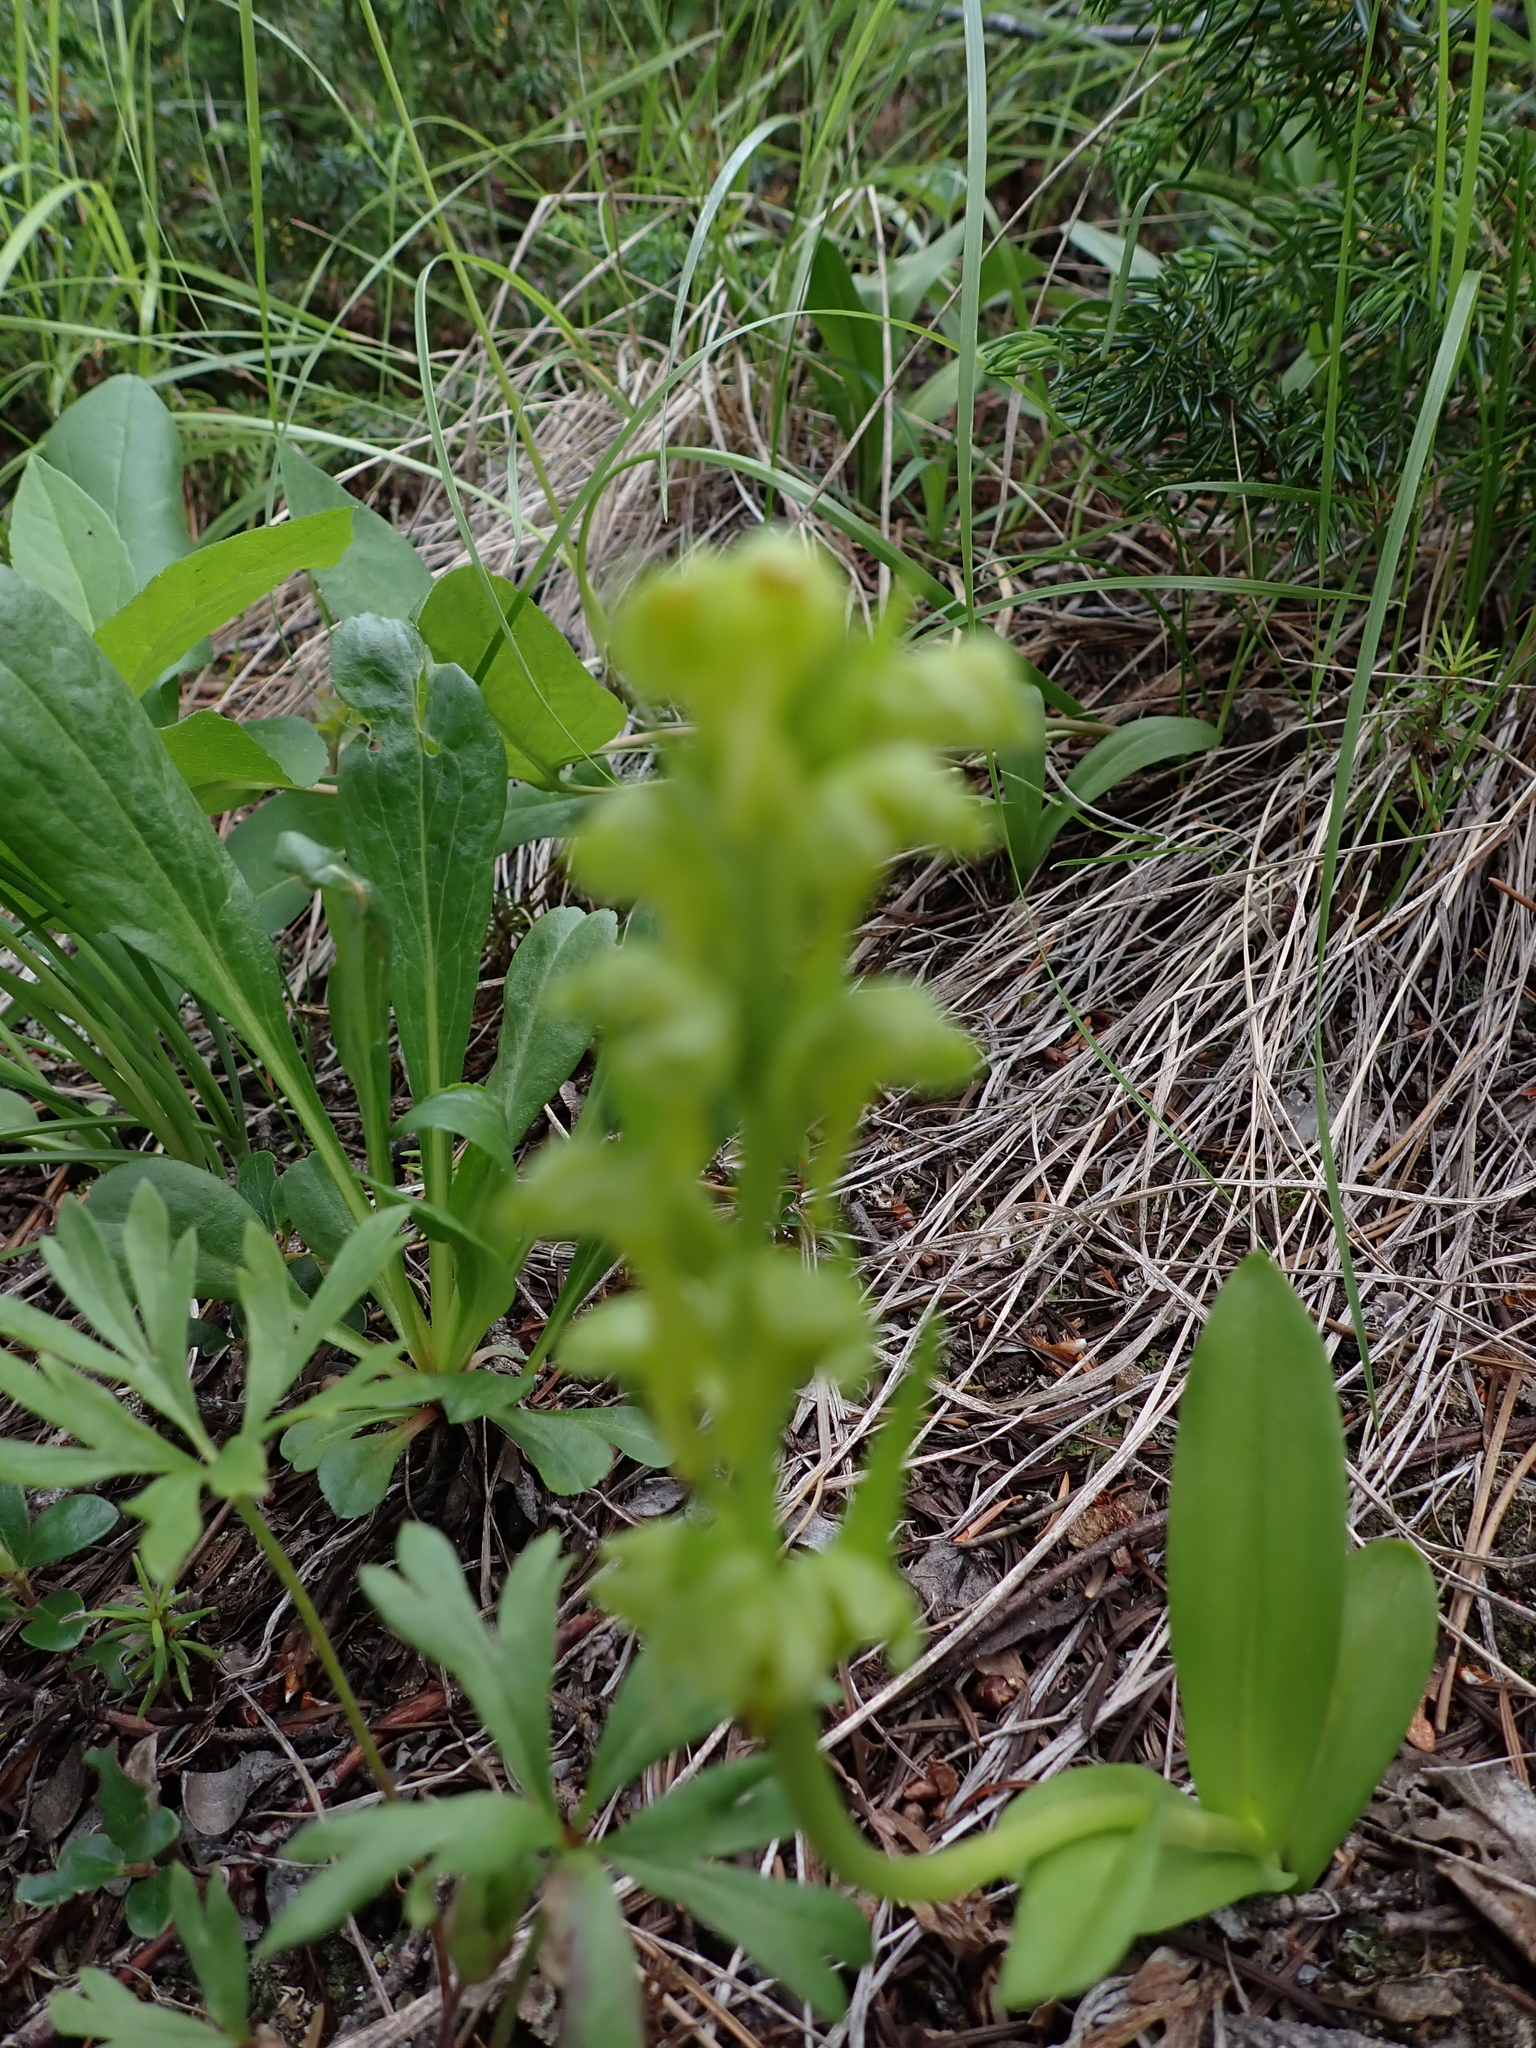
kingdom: Plantae
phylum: Tracheophyta
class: Liliopsida
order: Asparagales
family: Orchidaceae
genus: Dactylorhiza
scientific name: Dactylorhiza viridis
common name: Longbract frog orchid
